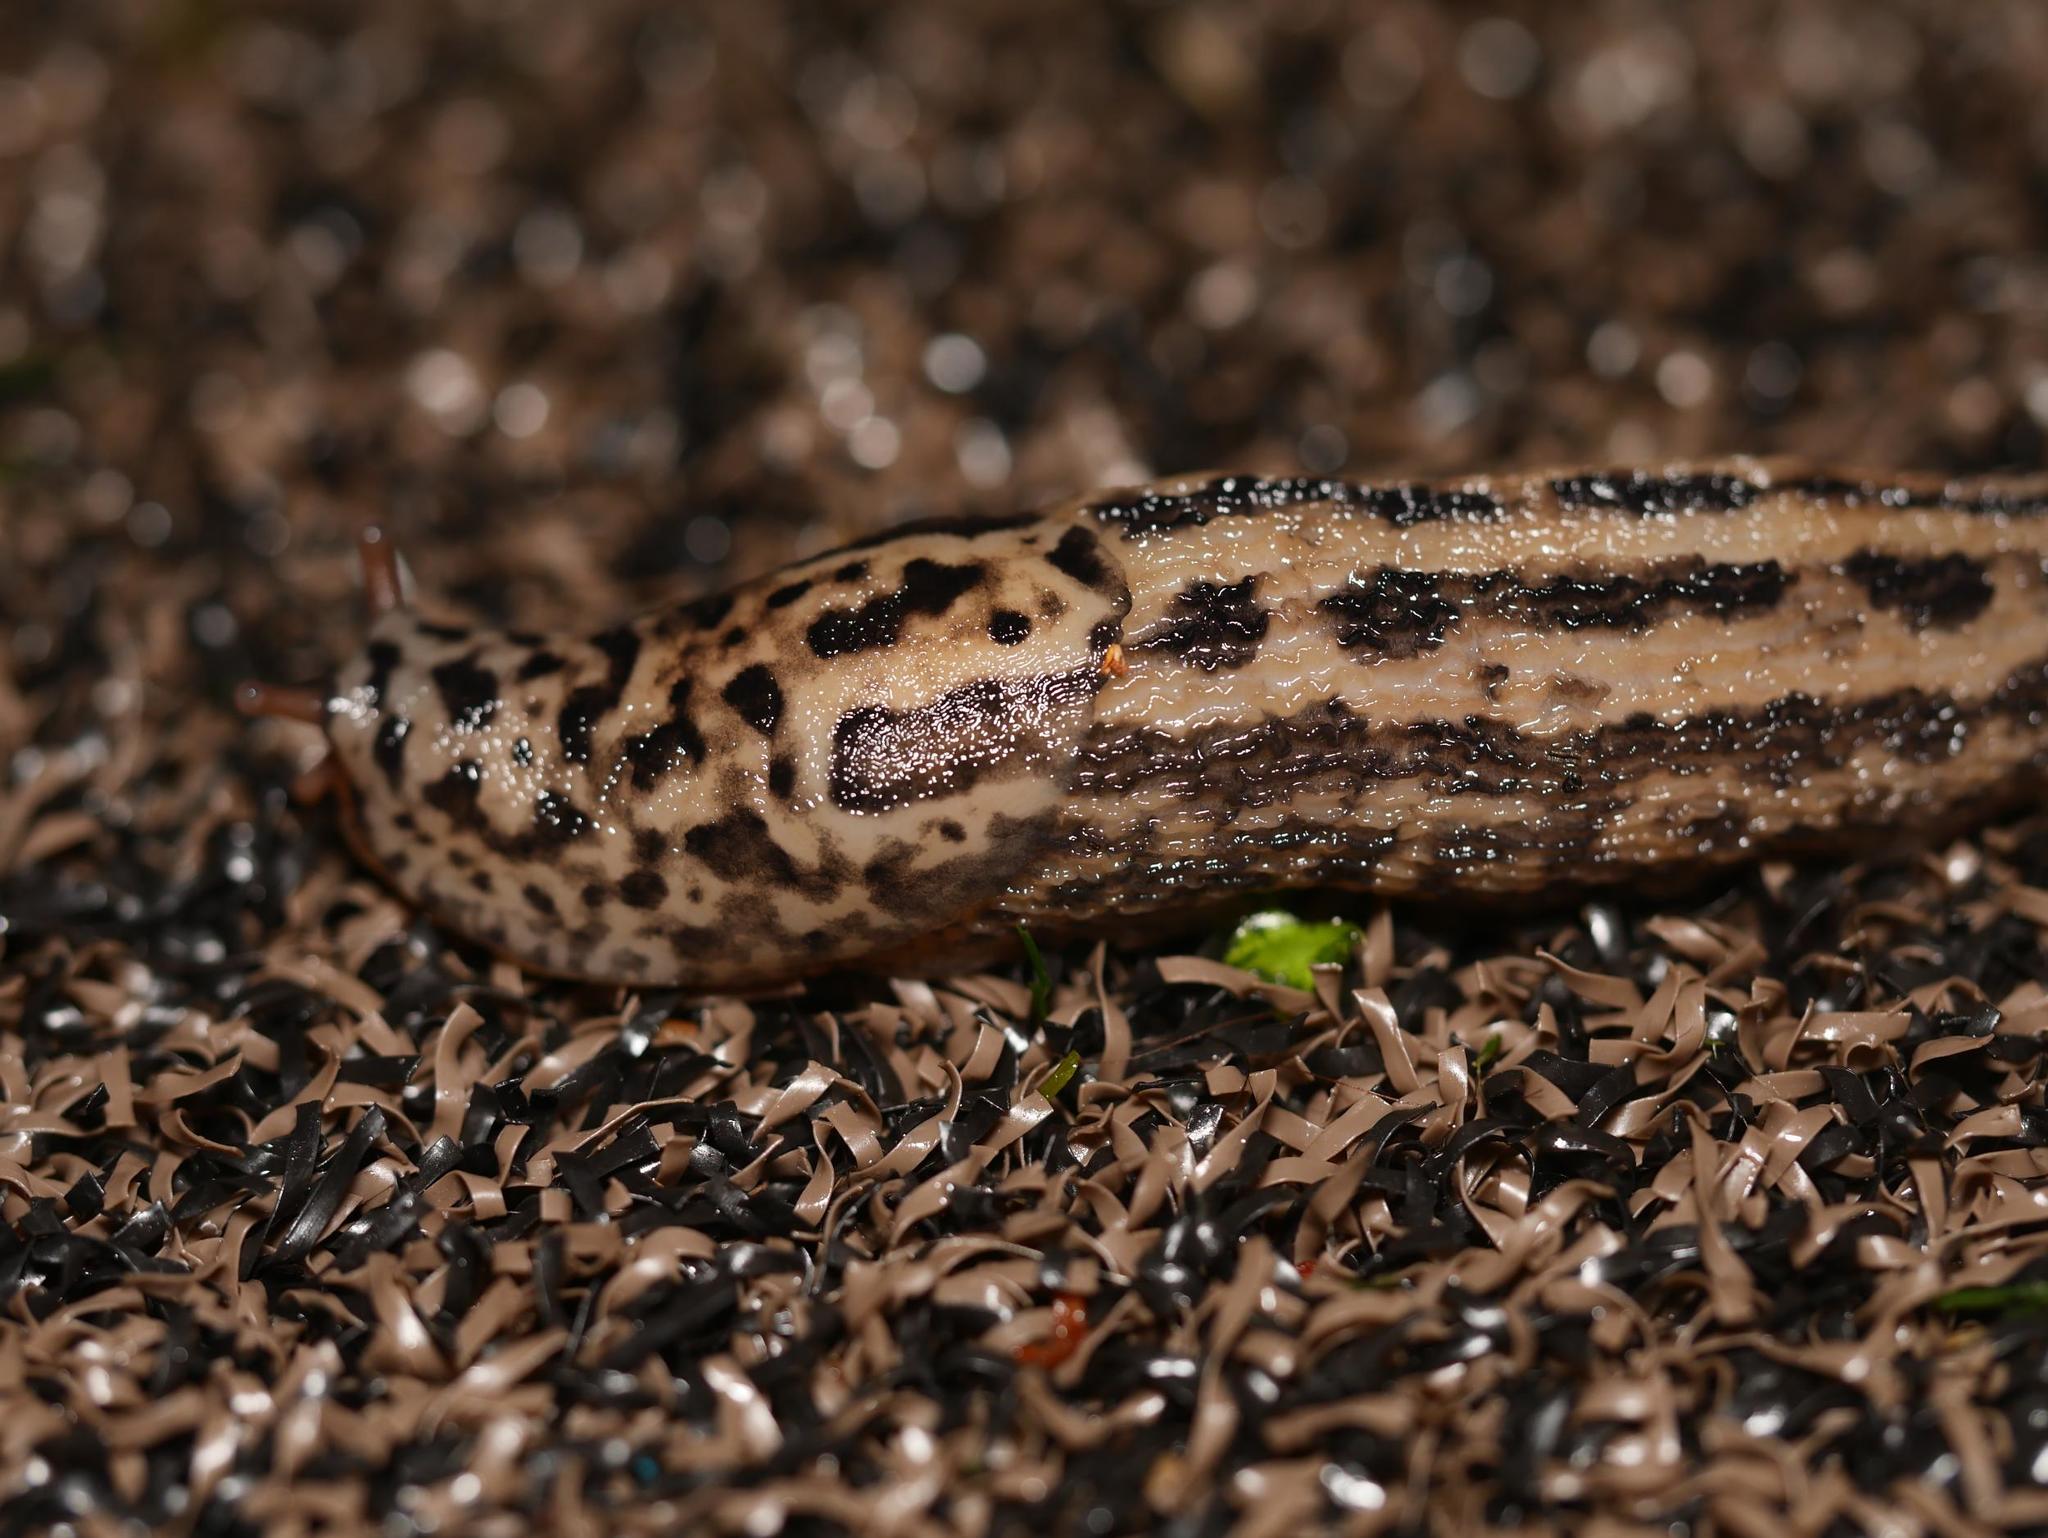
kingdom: Animalia
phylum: Mollusca
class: Gastropoda
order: Stylommatophora
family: Limacidae
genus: Limax
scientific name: Limax maximus
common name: Great grey slug
